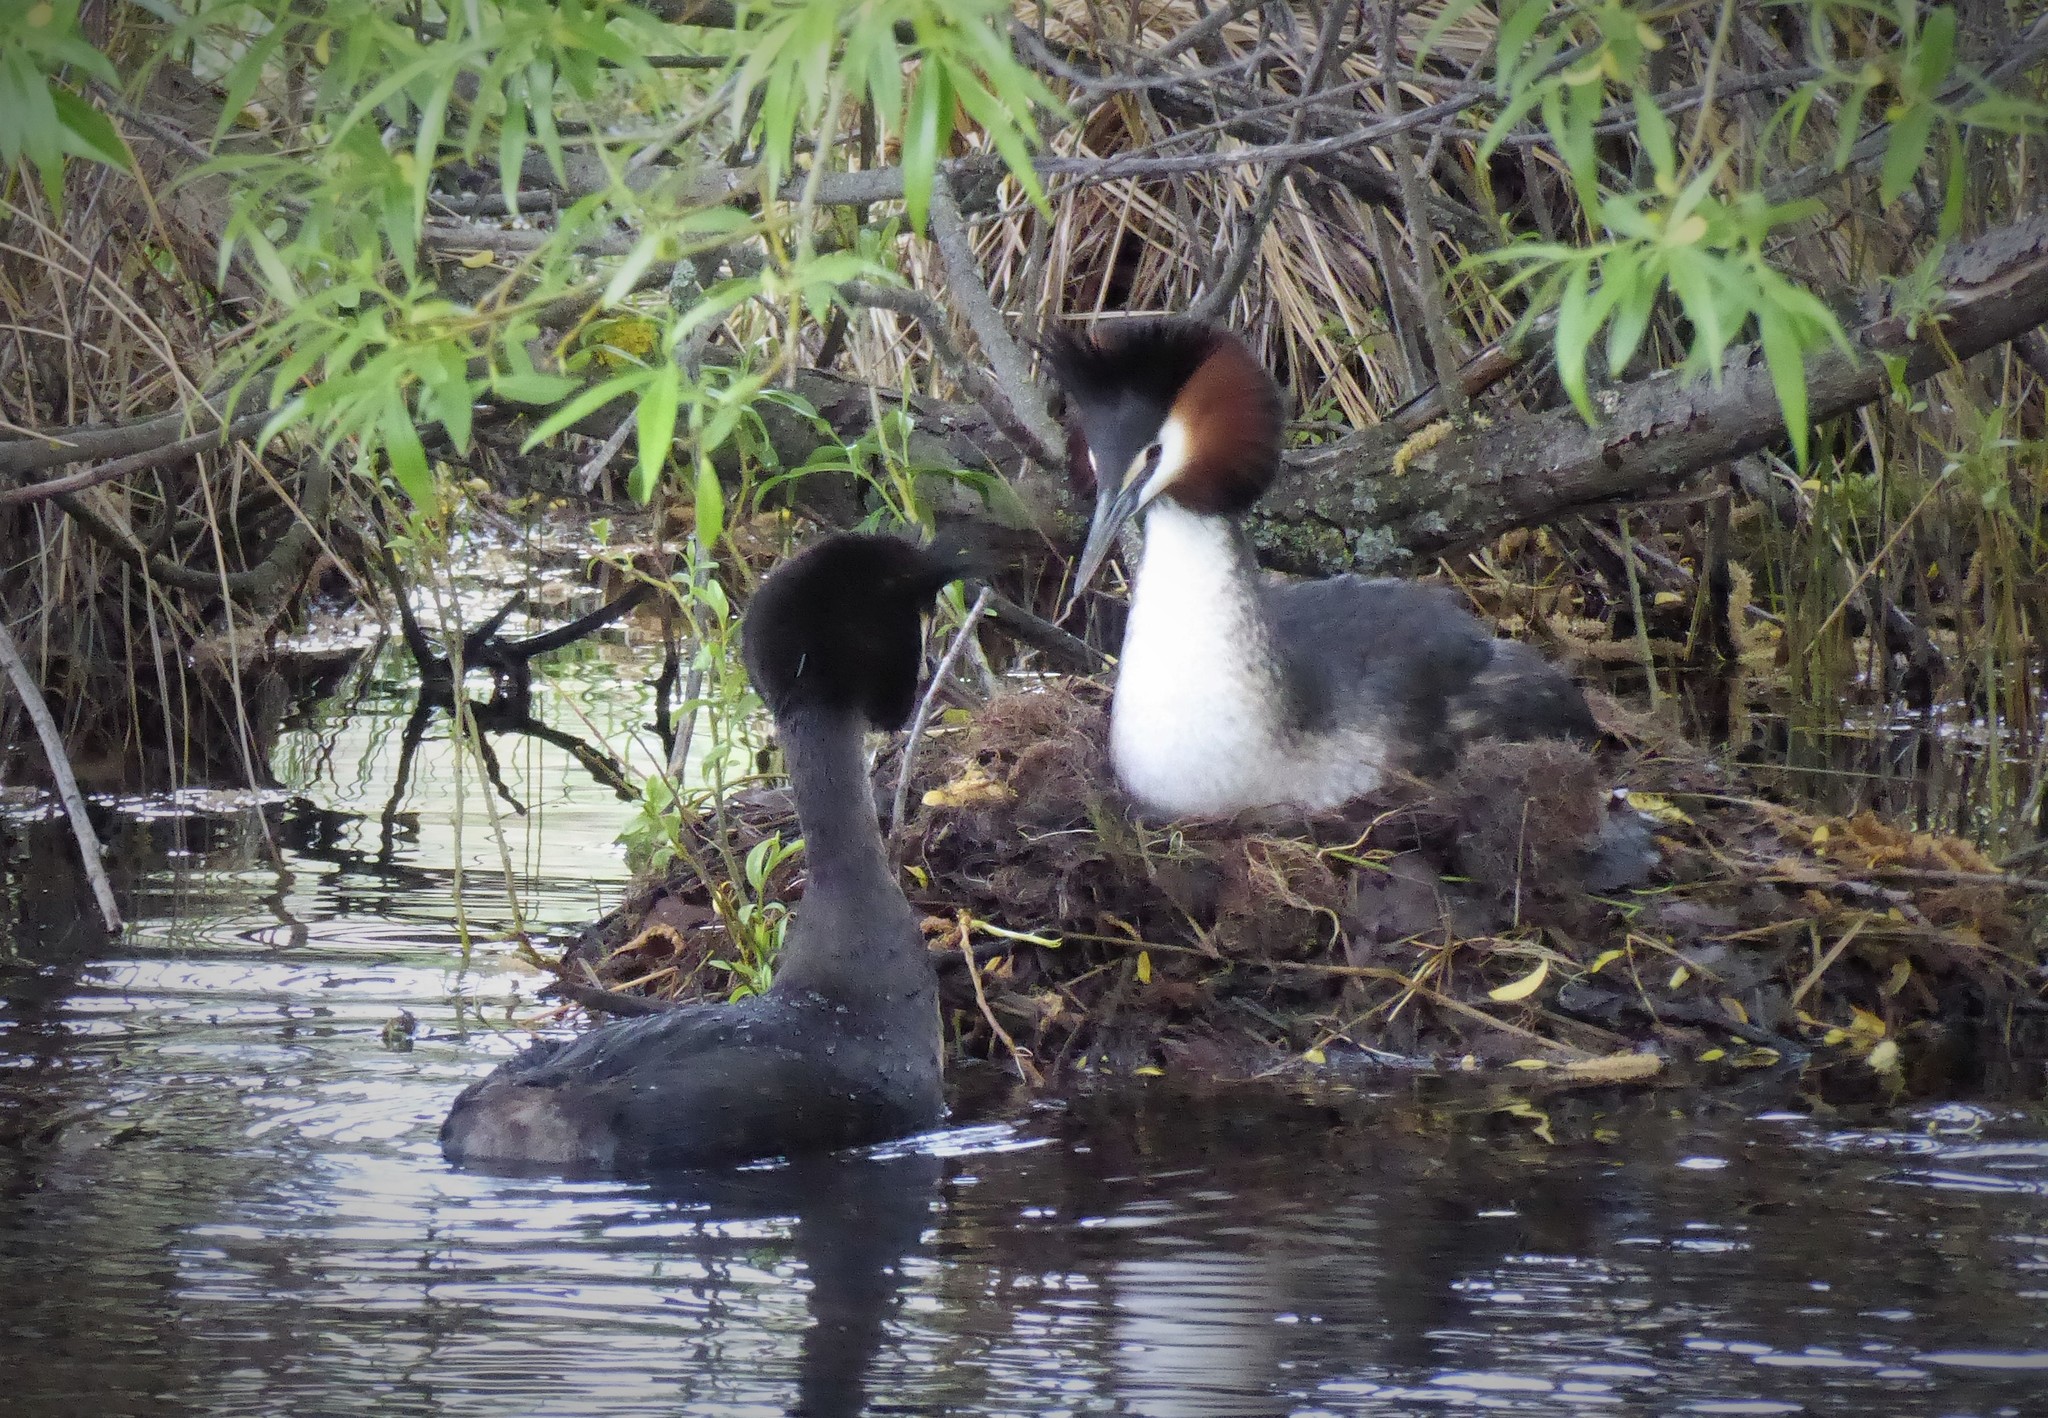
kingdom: Animalia
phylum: Chordata
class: Aves
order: Podicipediformes
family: Podicipedidae
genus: Podiceps
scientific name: Podiceps cristatus
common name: Great crested grebe
